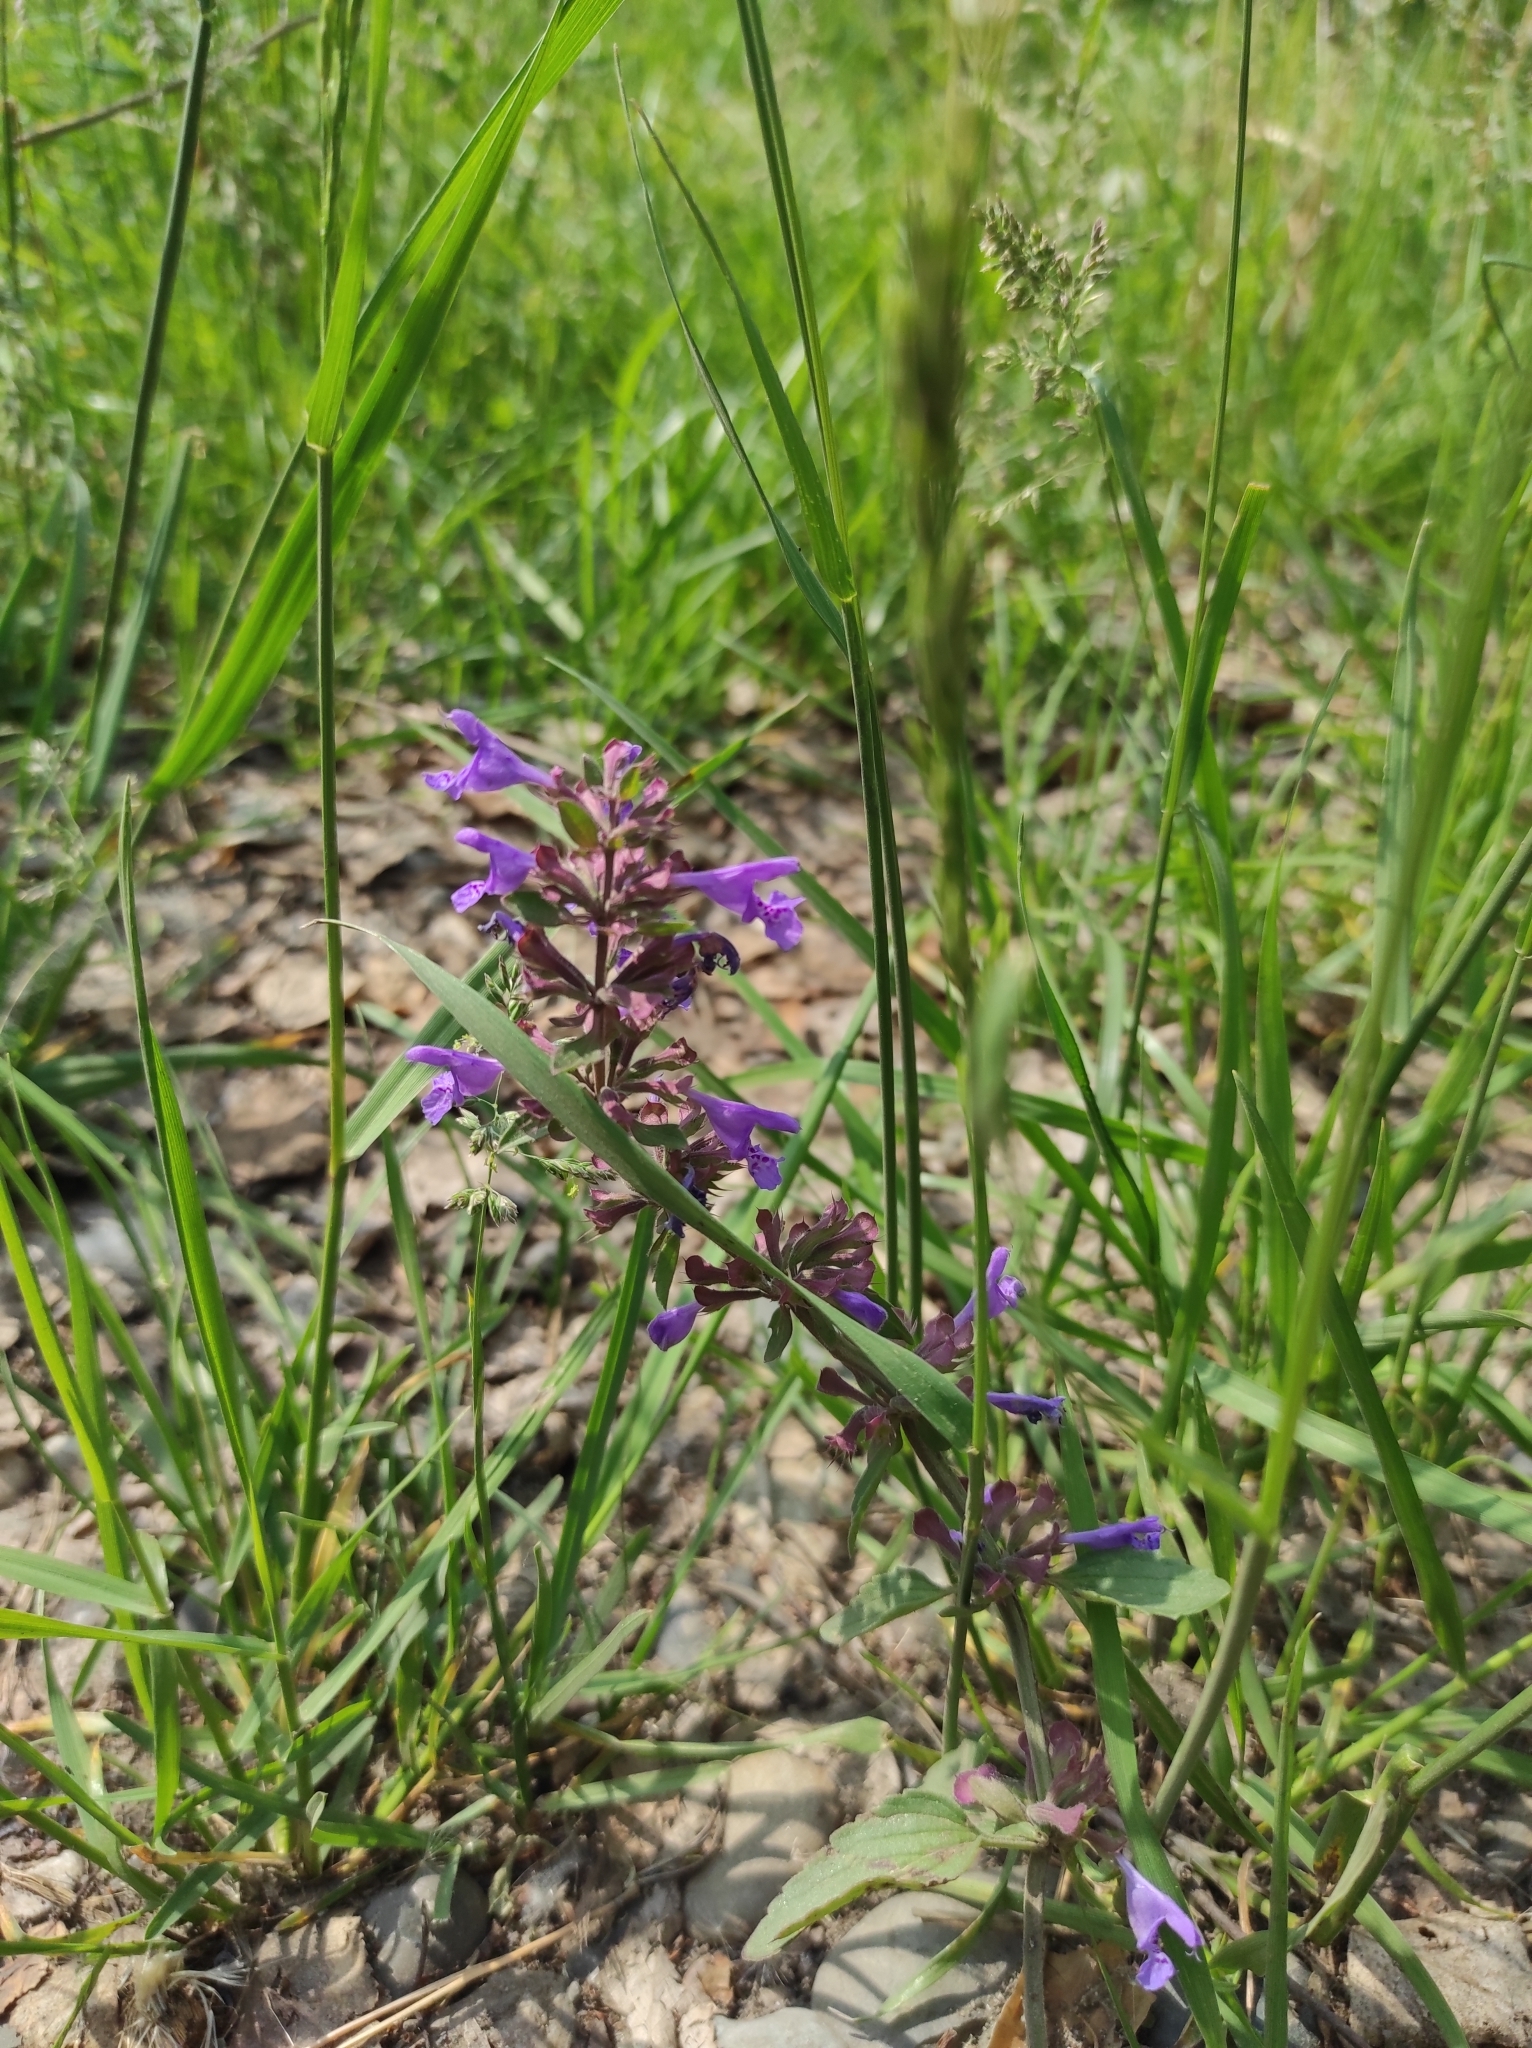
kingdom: Plantae
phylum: Tracheophyta
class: Magnoliopsida
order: Lamiales
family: Lamiaceae
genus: Dracocephalum
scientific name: Dracocephalum nutans
